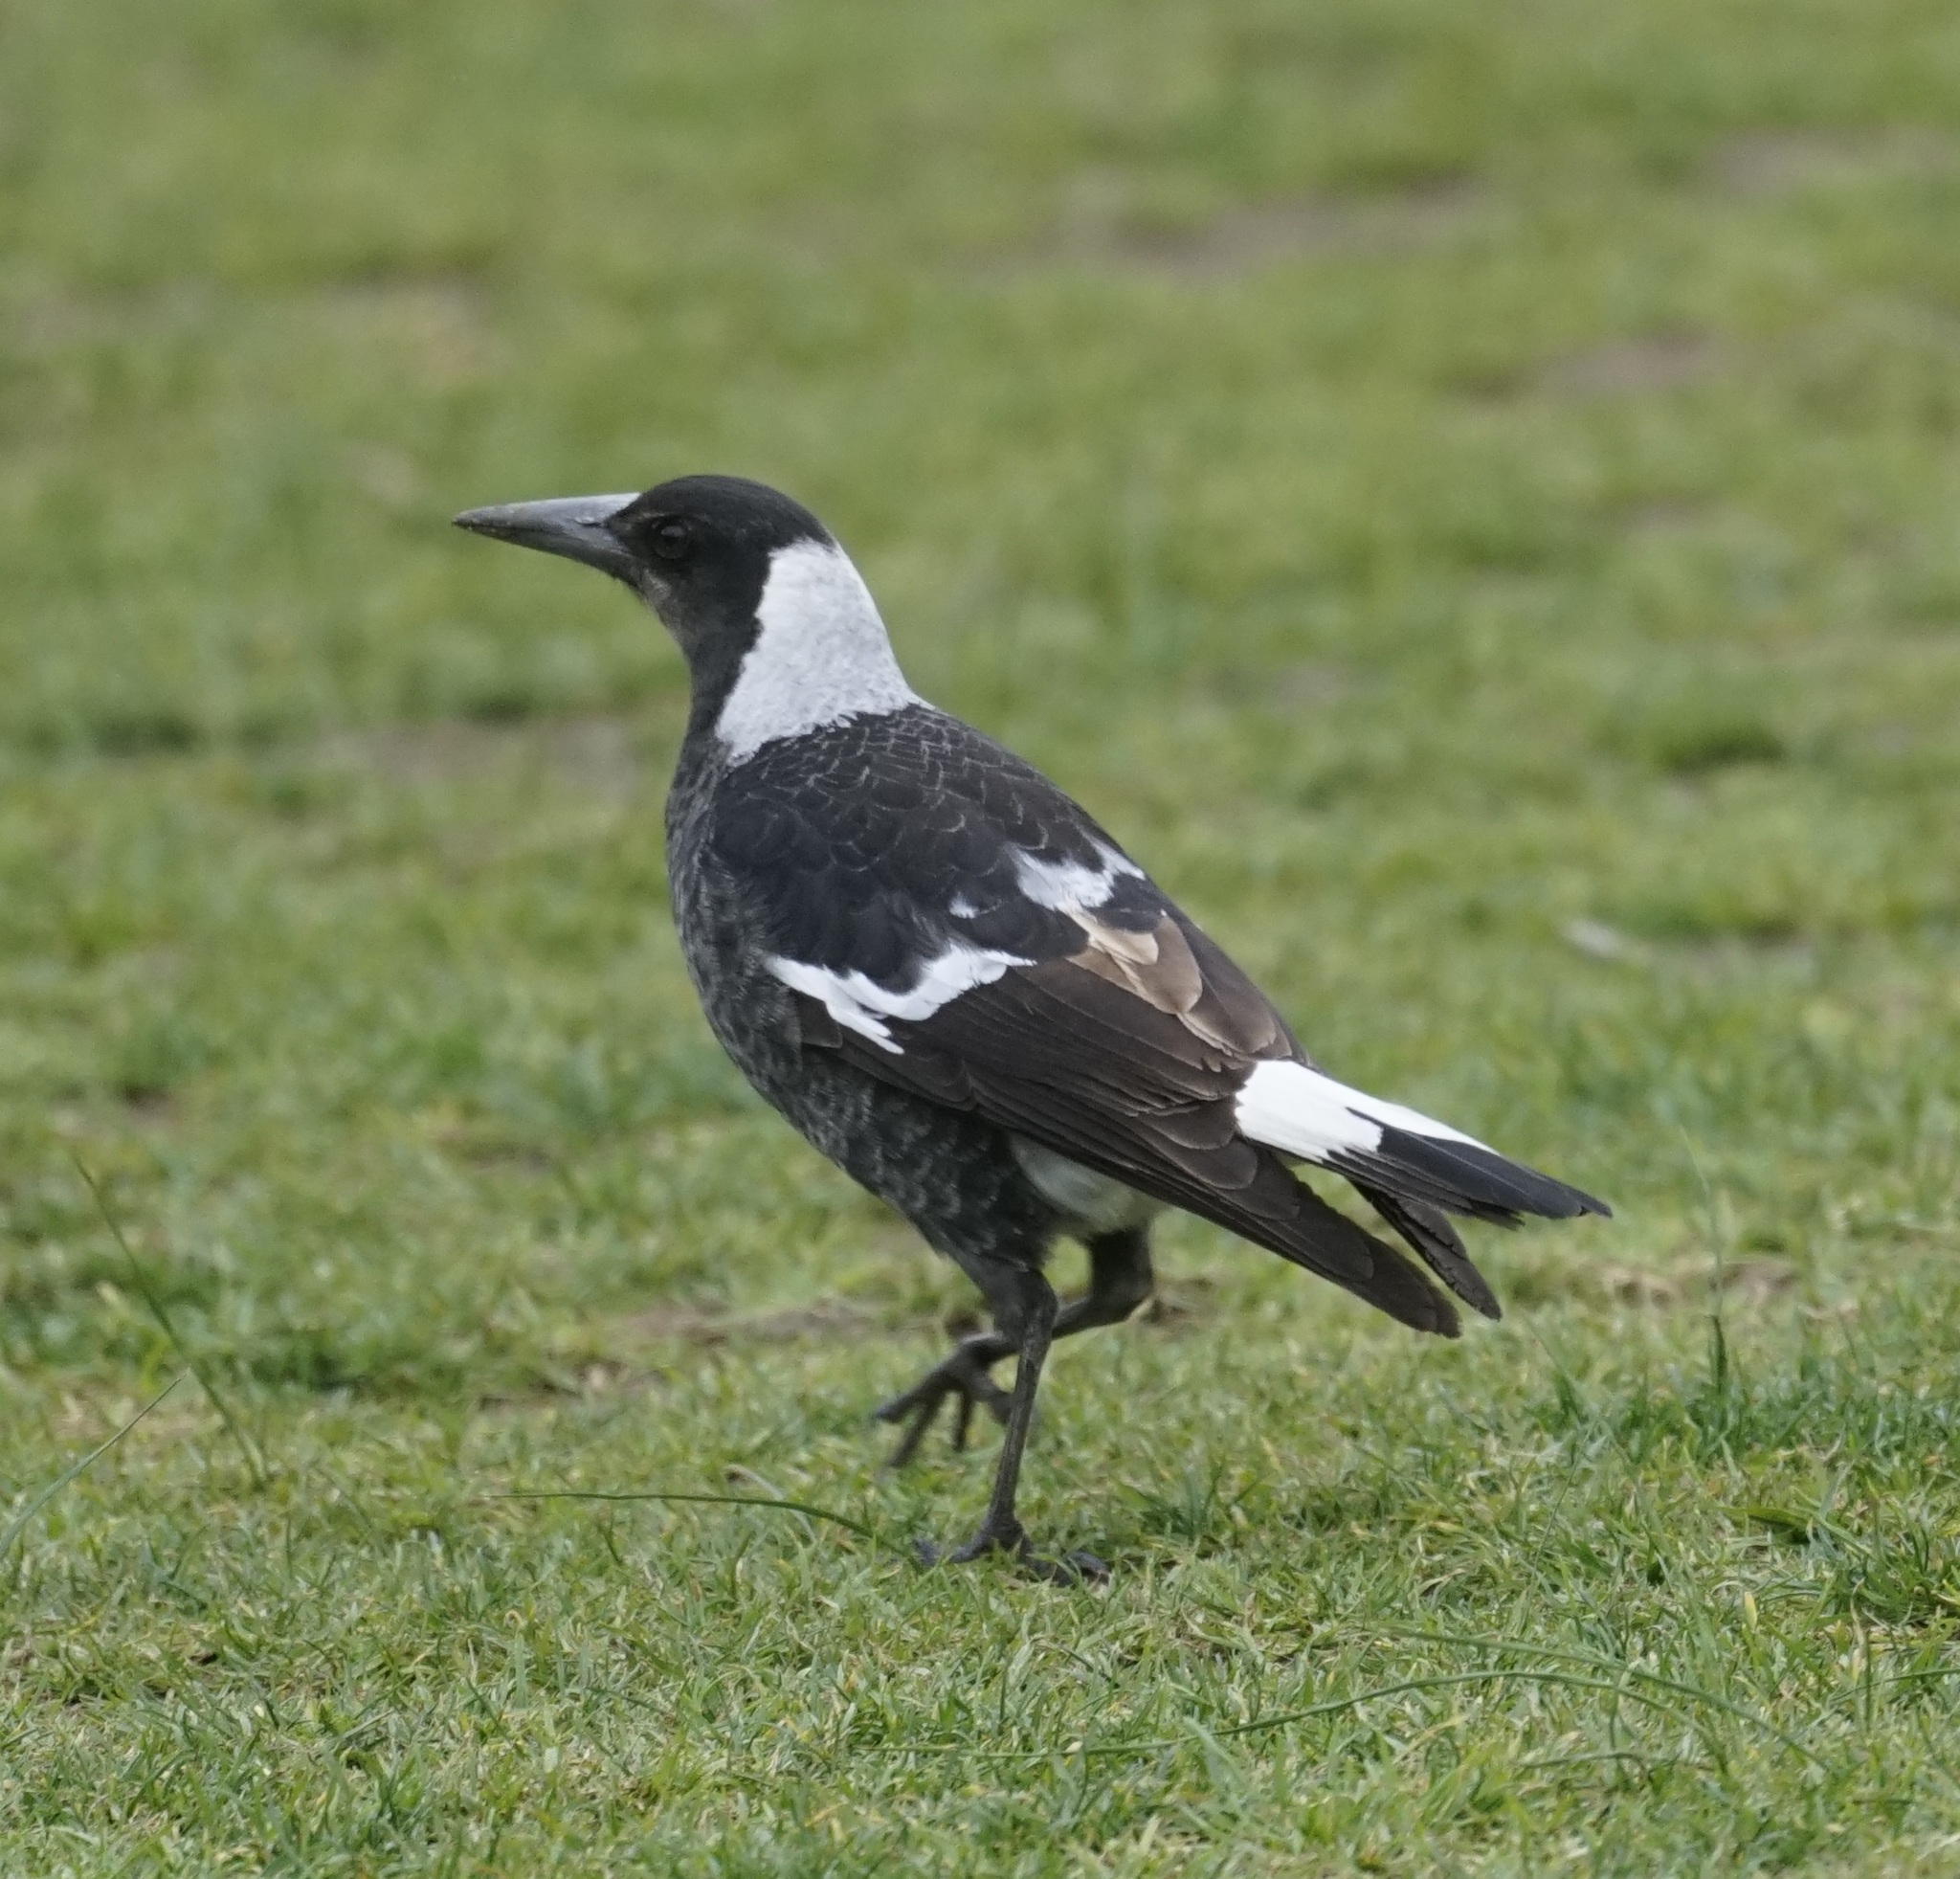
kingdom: Animalia
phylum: Chordata
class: Aves
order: Passeriformes
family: Cracticidae
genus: Gymnorhina
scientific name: Gymnorhina tibicen
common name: Australian magpie
